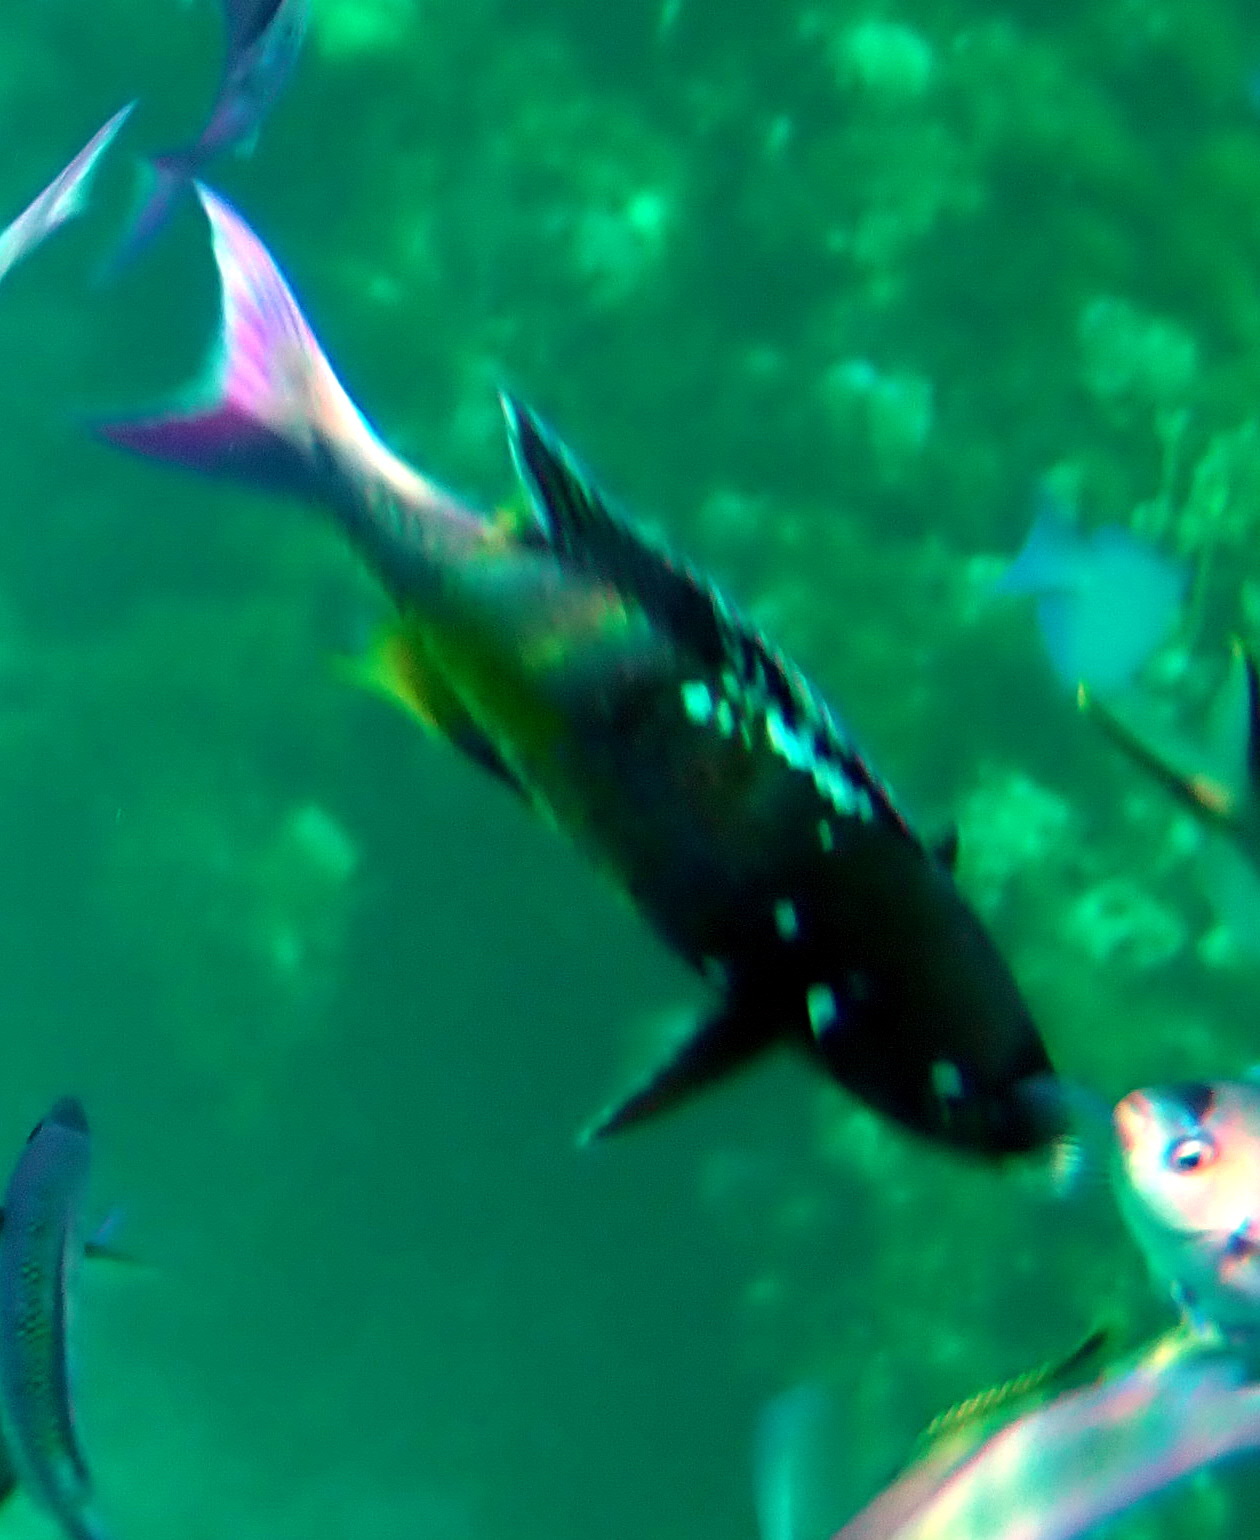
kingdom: Animalia
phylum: Chordata
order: Perciformes
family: Labridae
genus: Bodianus
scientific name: Bodianus
